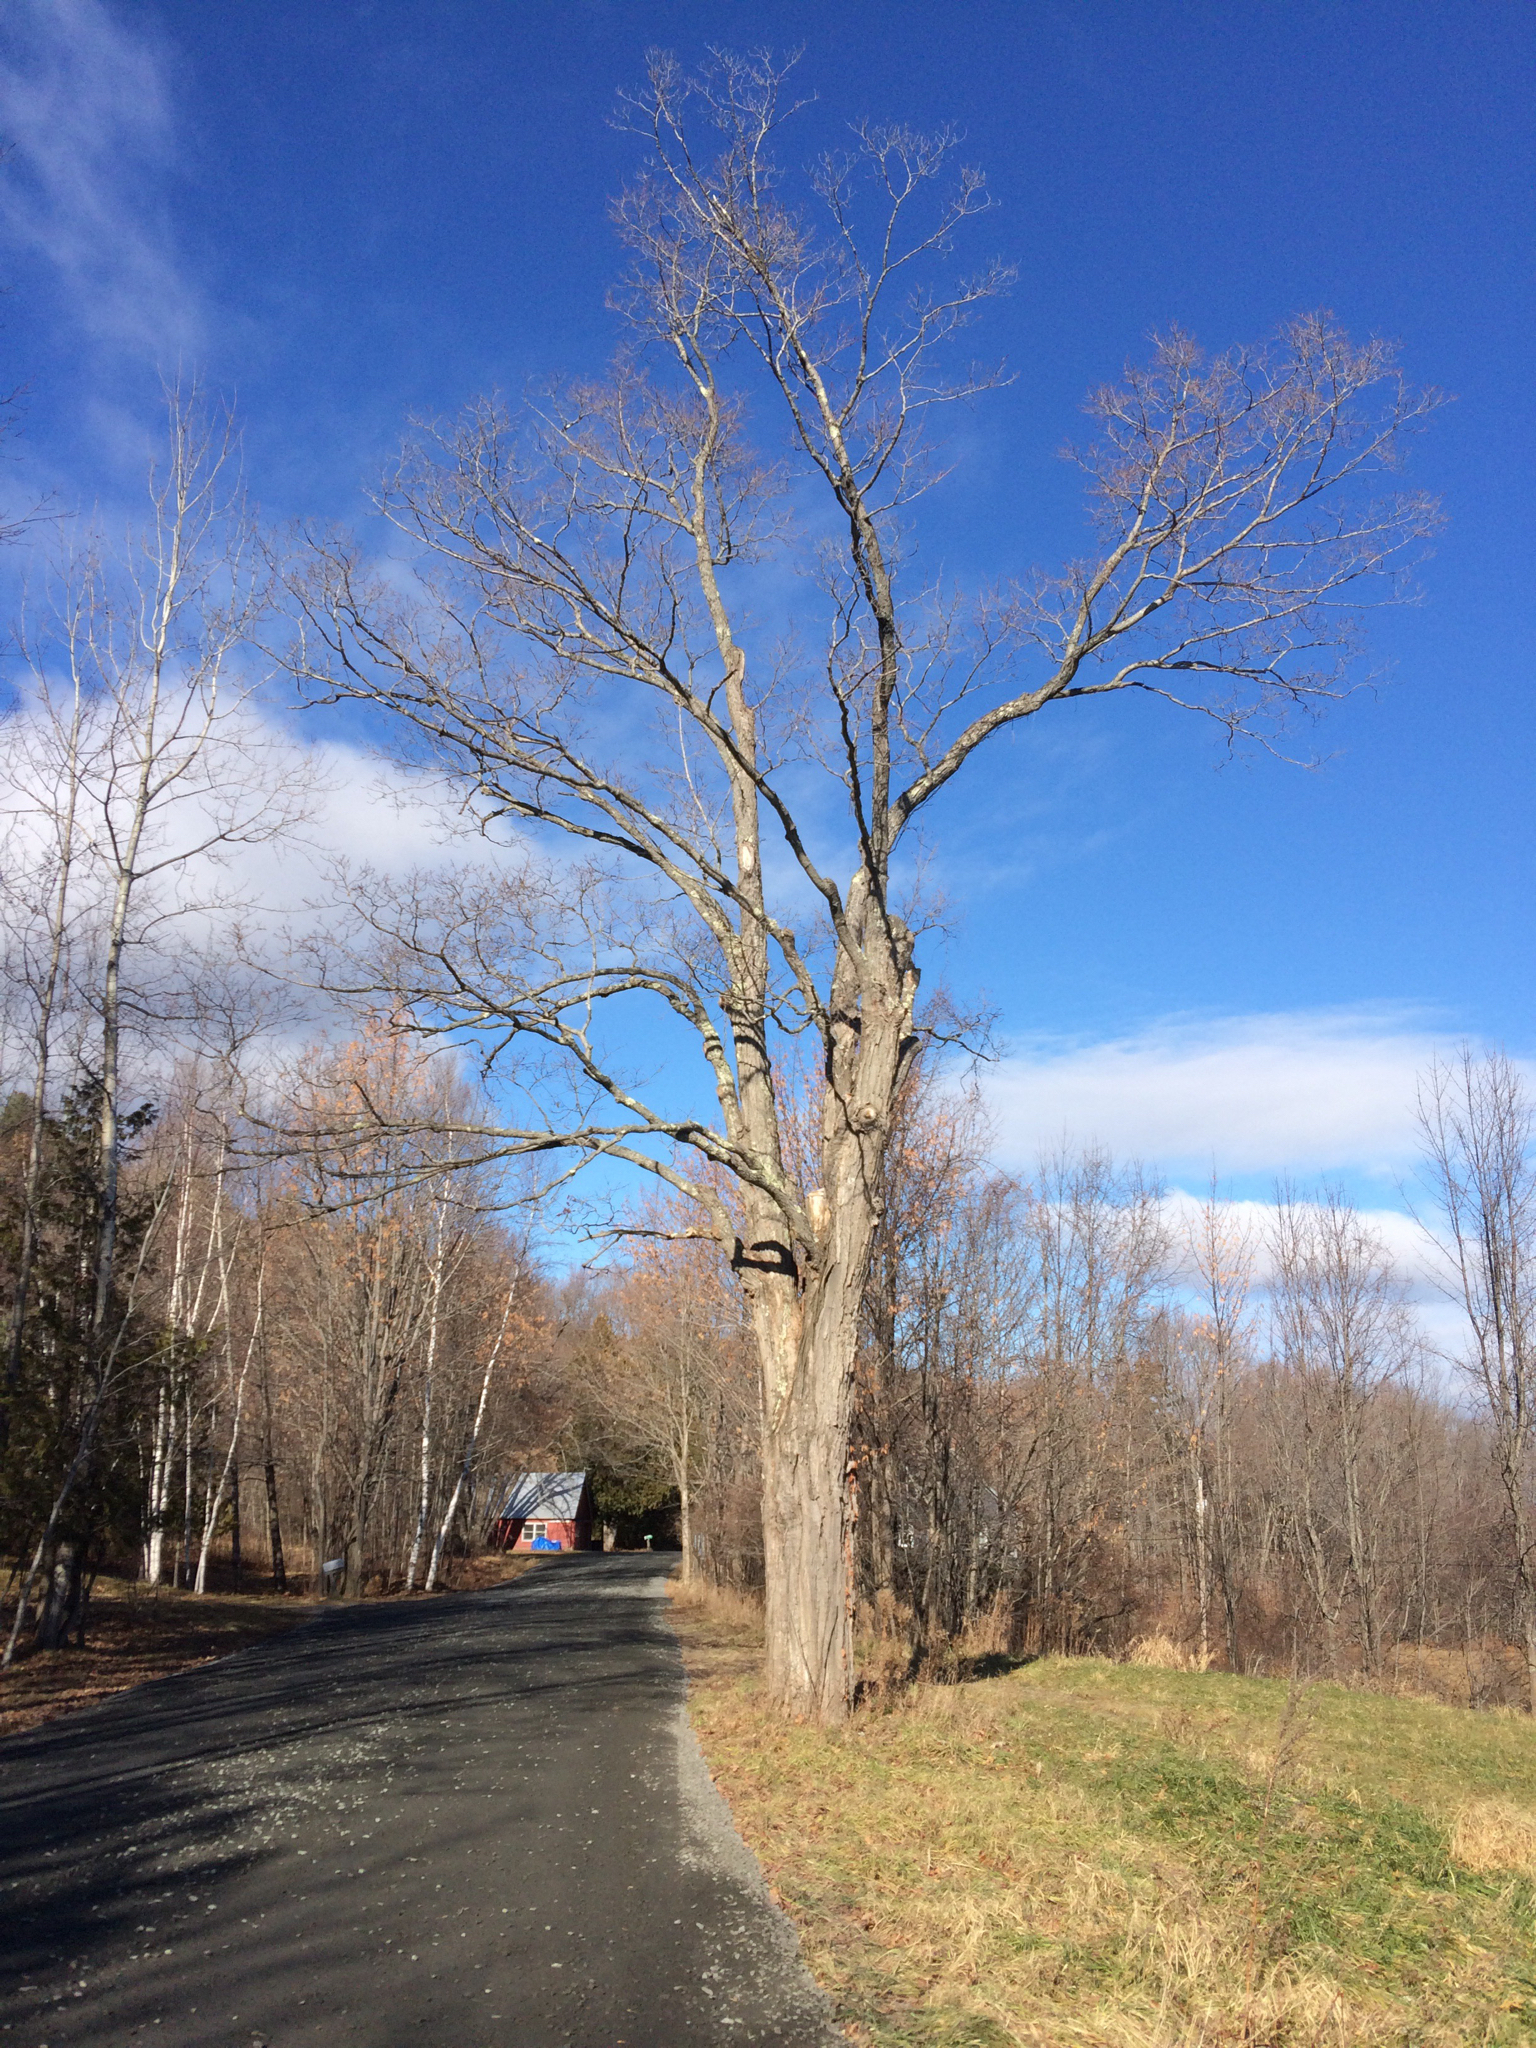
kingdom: Plantae
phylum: Tracheophyta
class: Magnoliopsida
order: Sapindales
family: Sapindaceae
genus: Acer
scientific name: Acer saccharum
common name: Sugar maple
